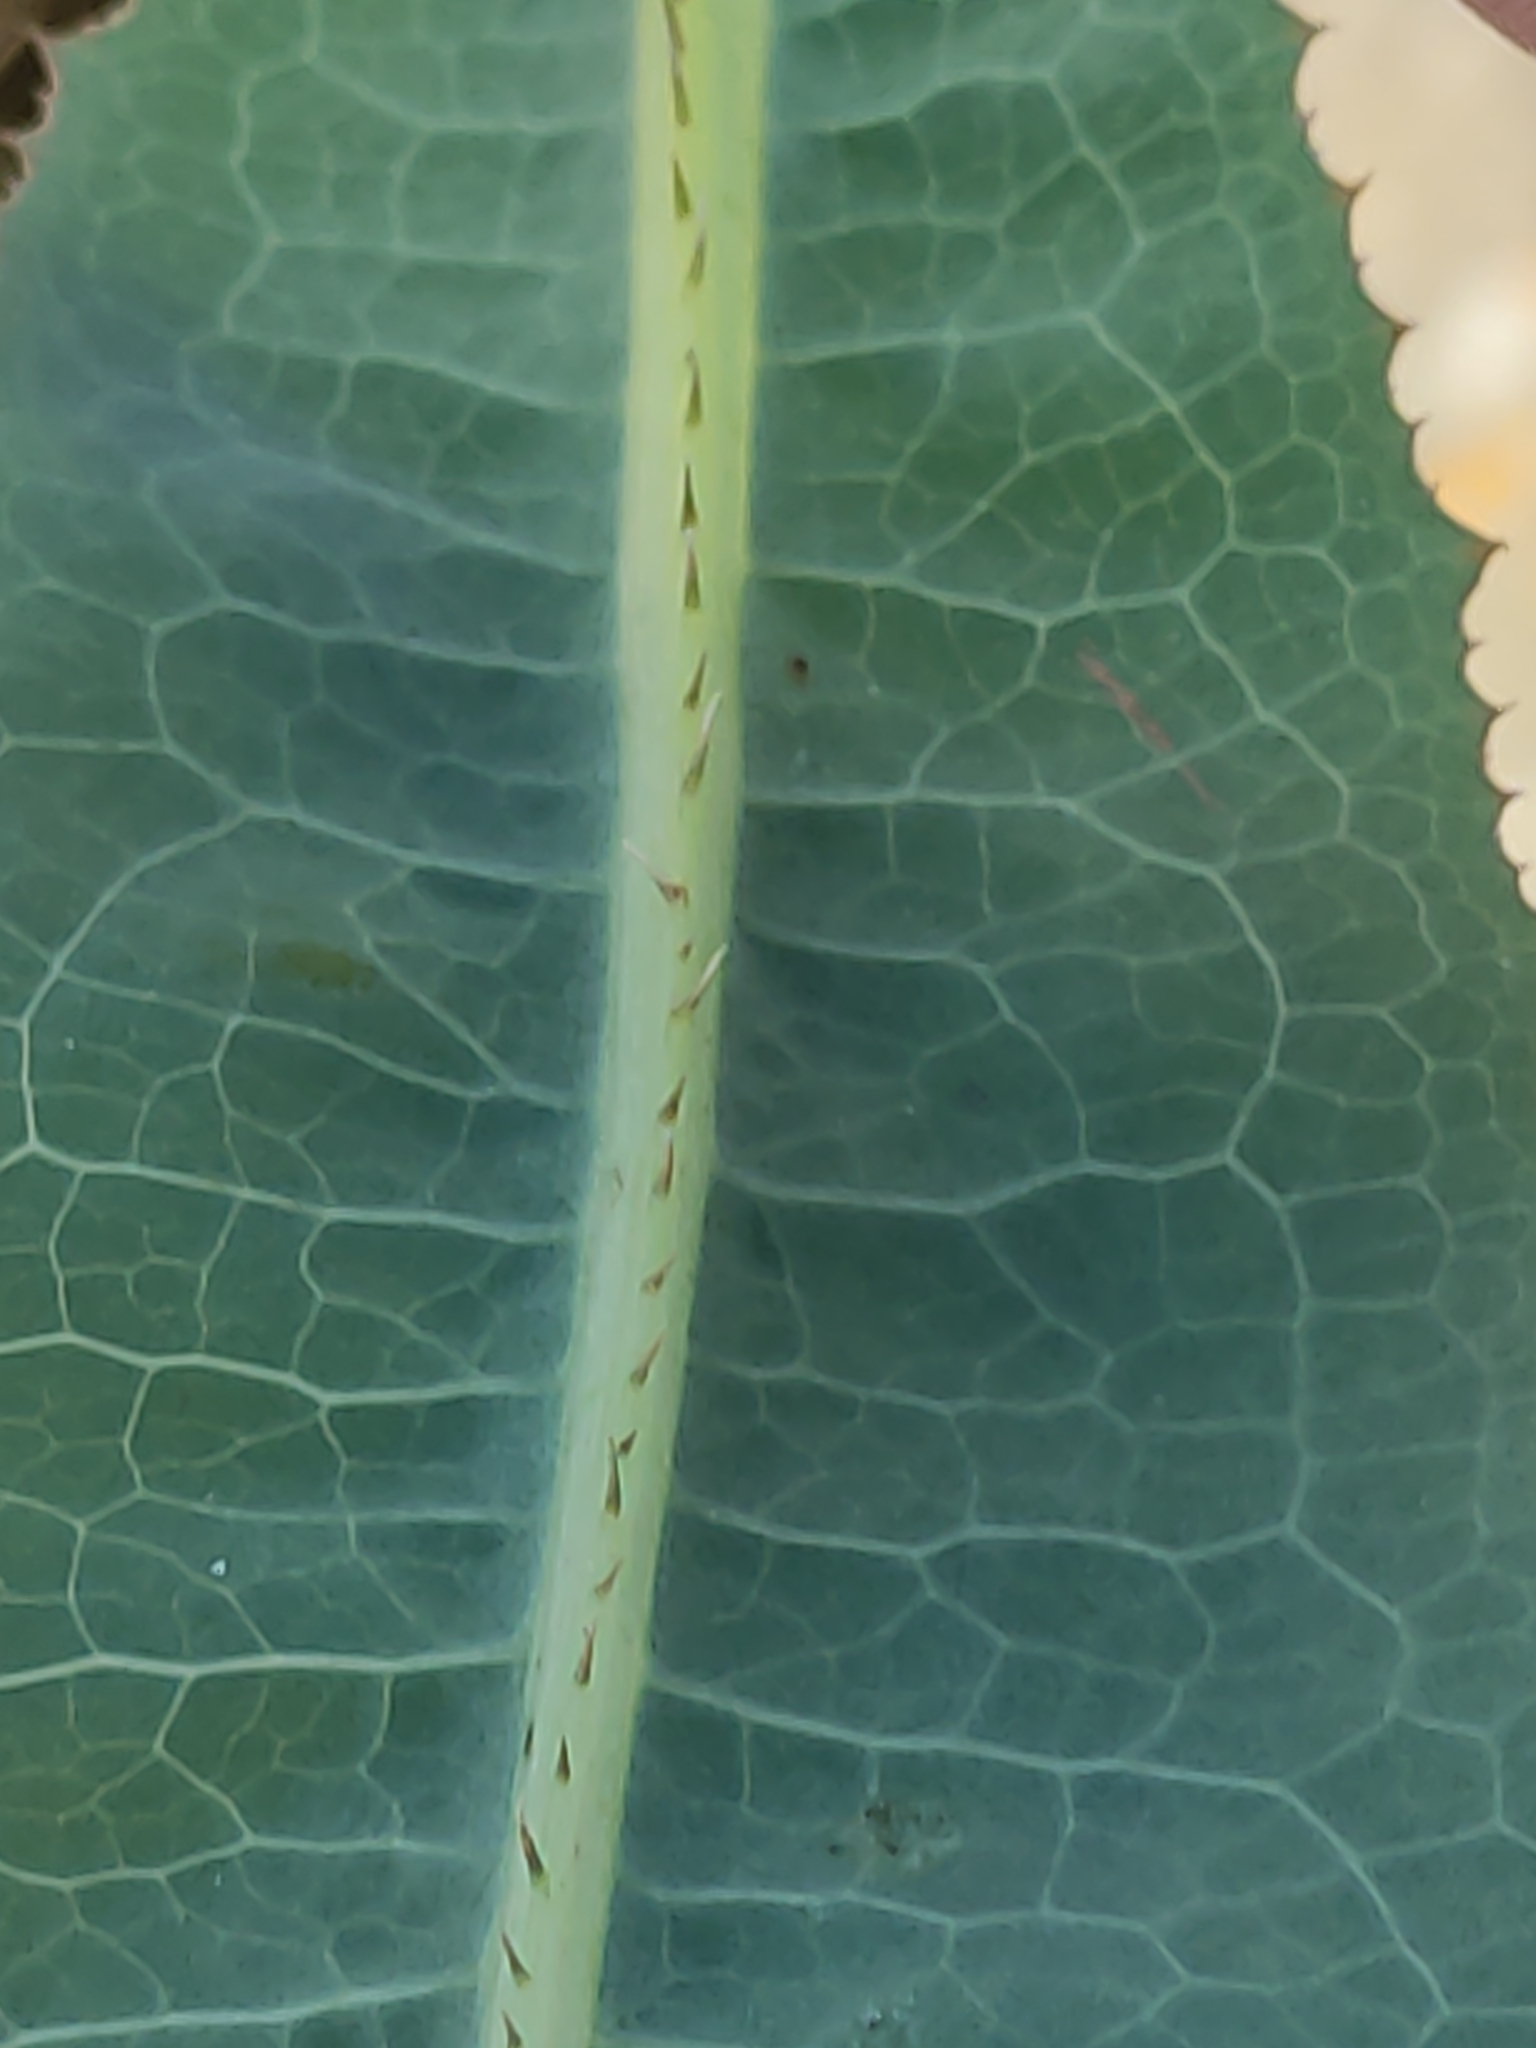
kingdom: Plantae
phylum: Tracheophyta
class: Magnoliopsida
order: Asterales
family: Asteraceae
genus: Lactuca
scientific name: Lactuca serriola
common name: Prickly lettuce
